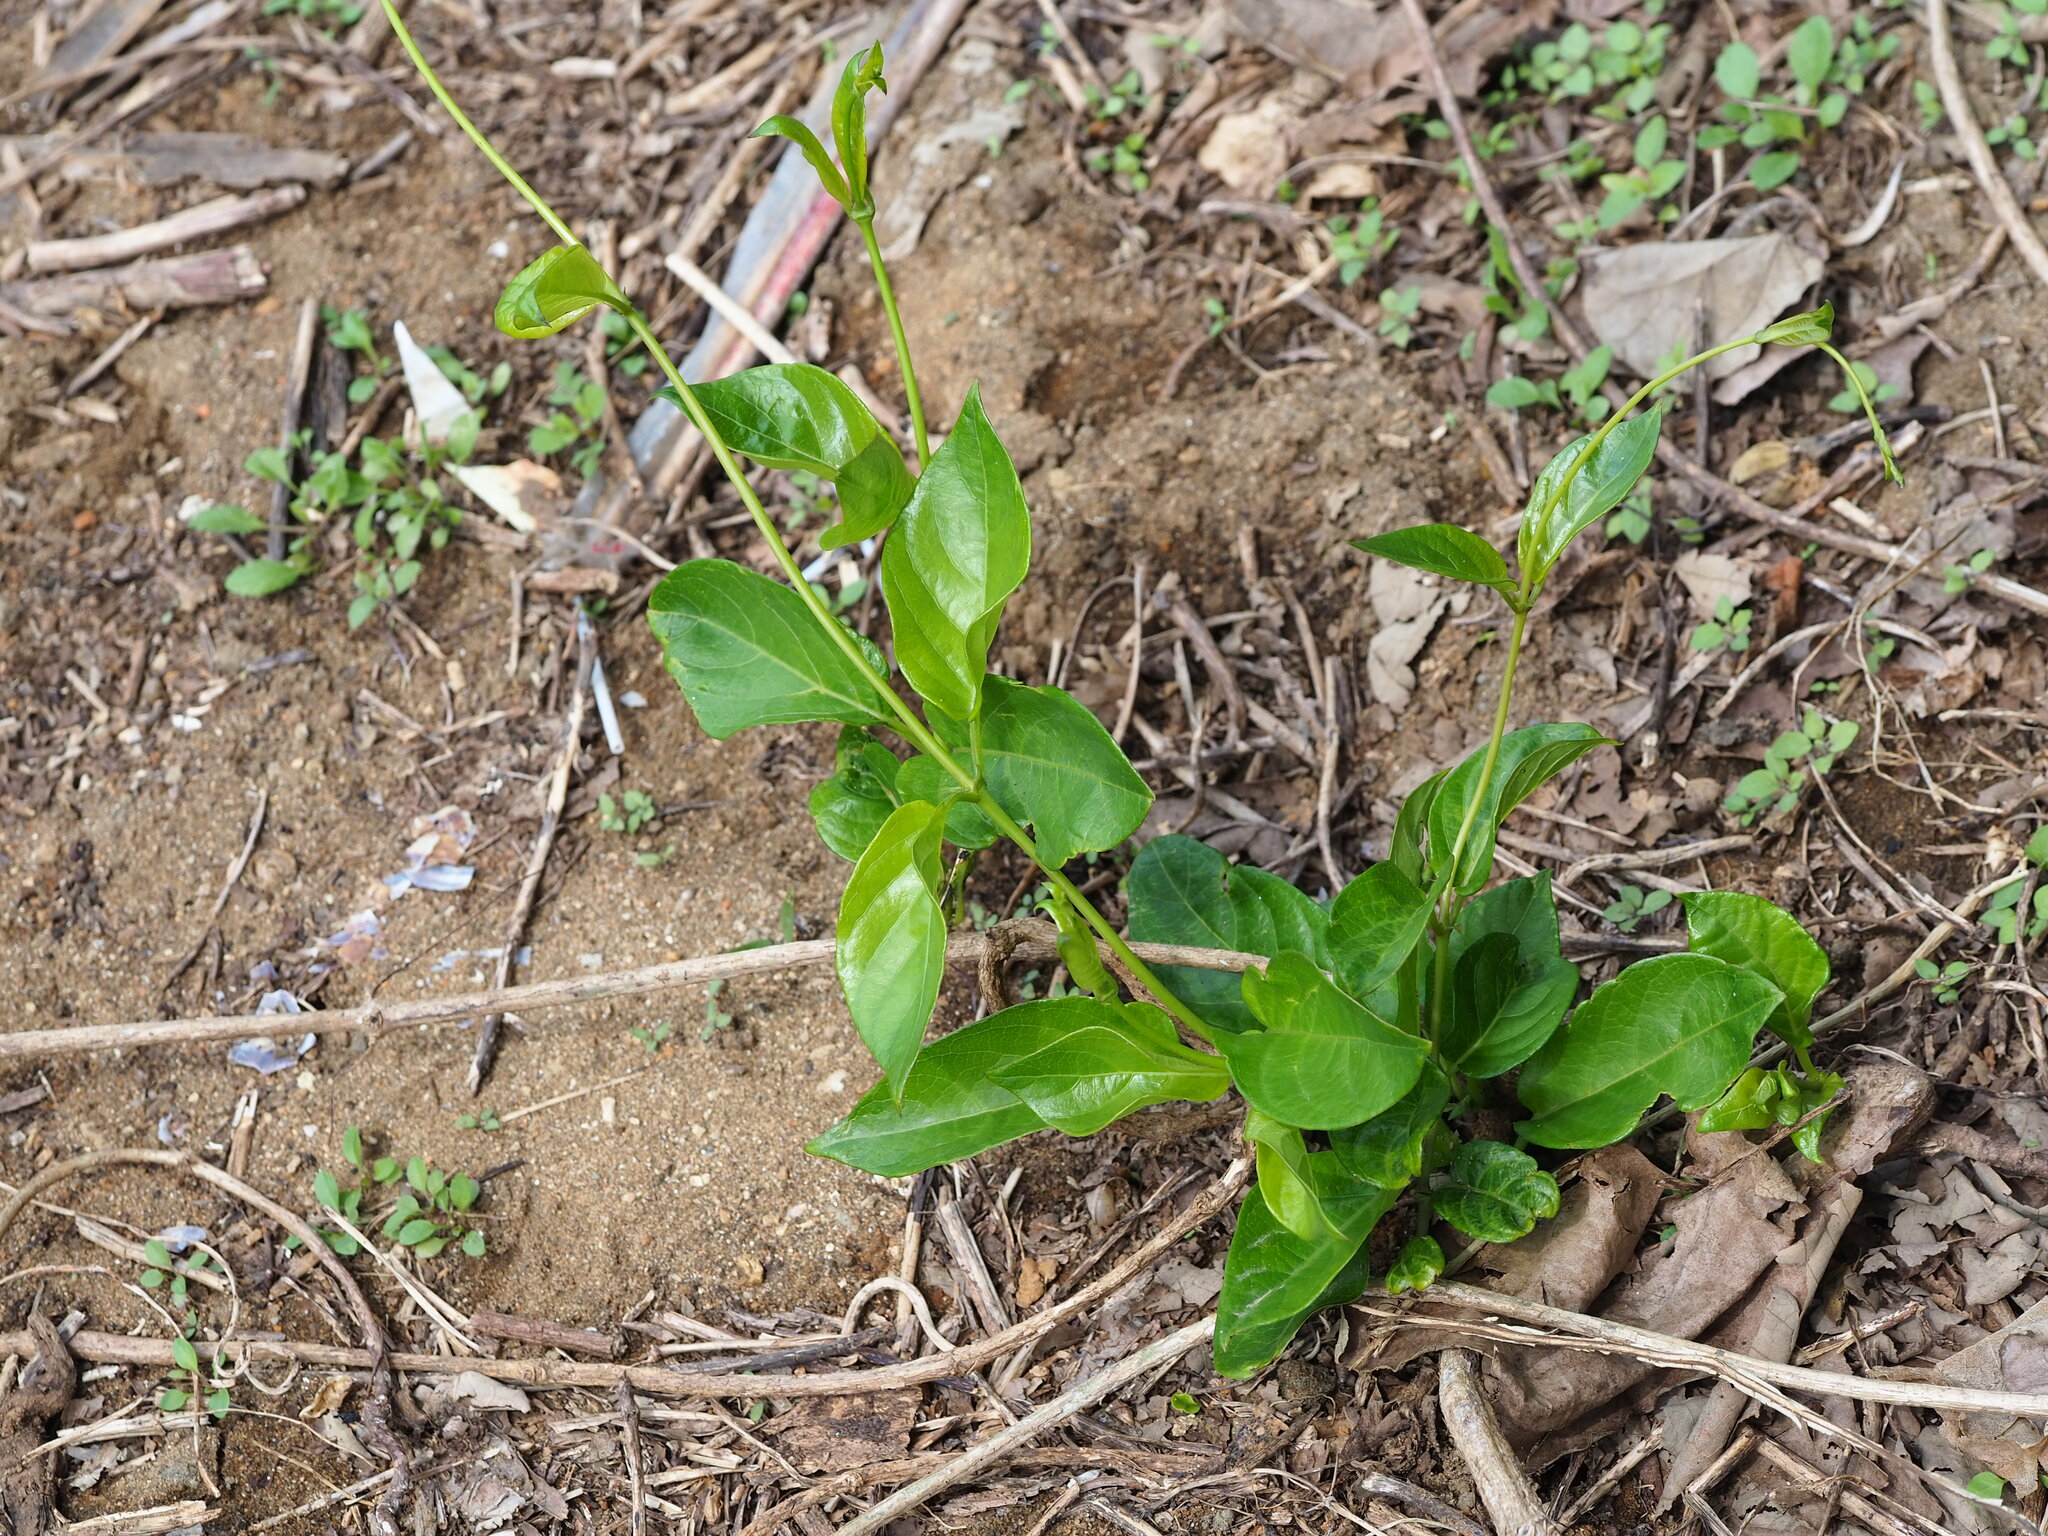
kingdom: Plantae
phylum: Tracheophyta
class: Magnoliopsida
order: Gentianales
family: Rubiaceae
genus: Paederia
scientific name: Paederia foetida
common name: Stinkvine
